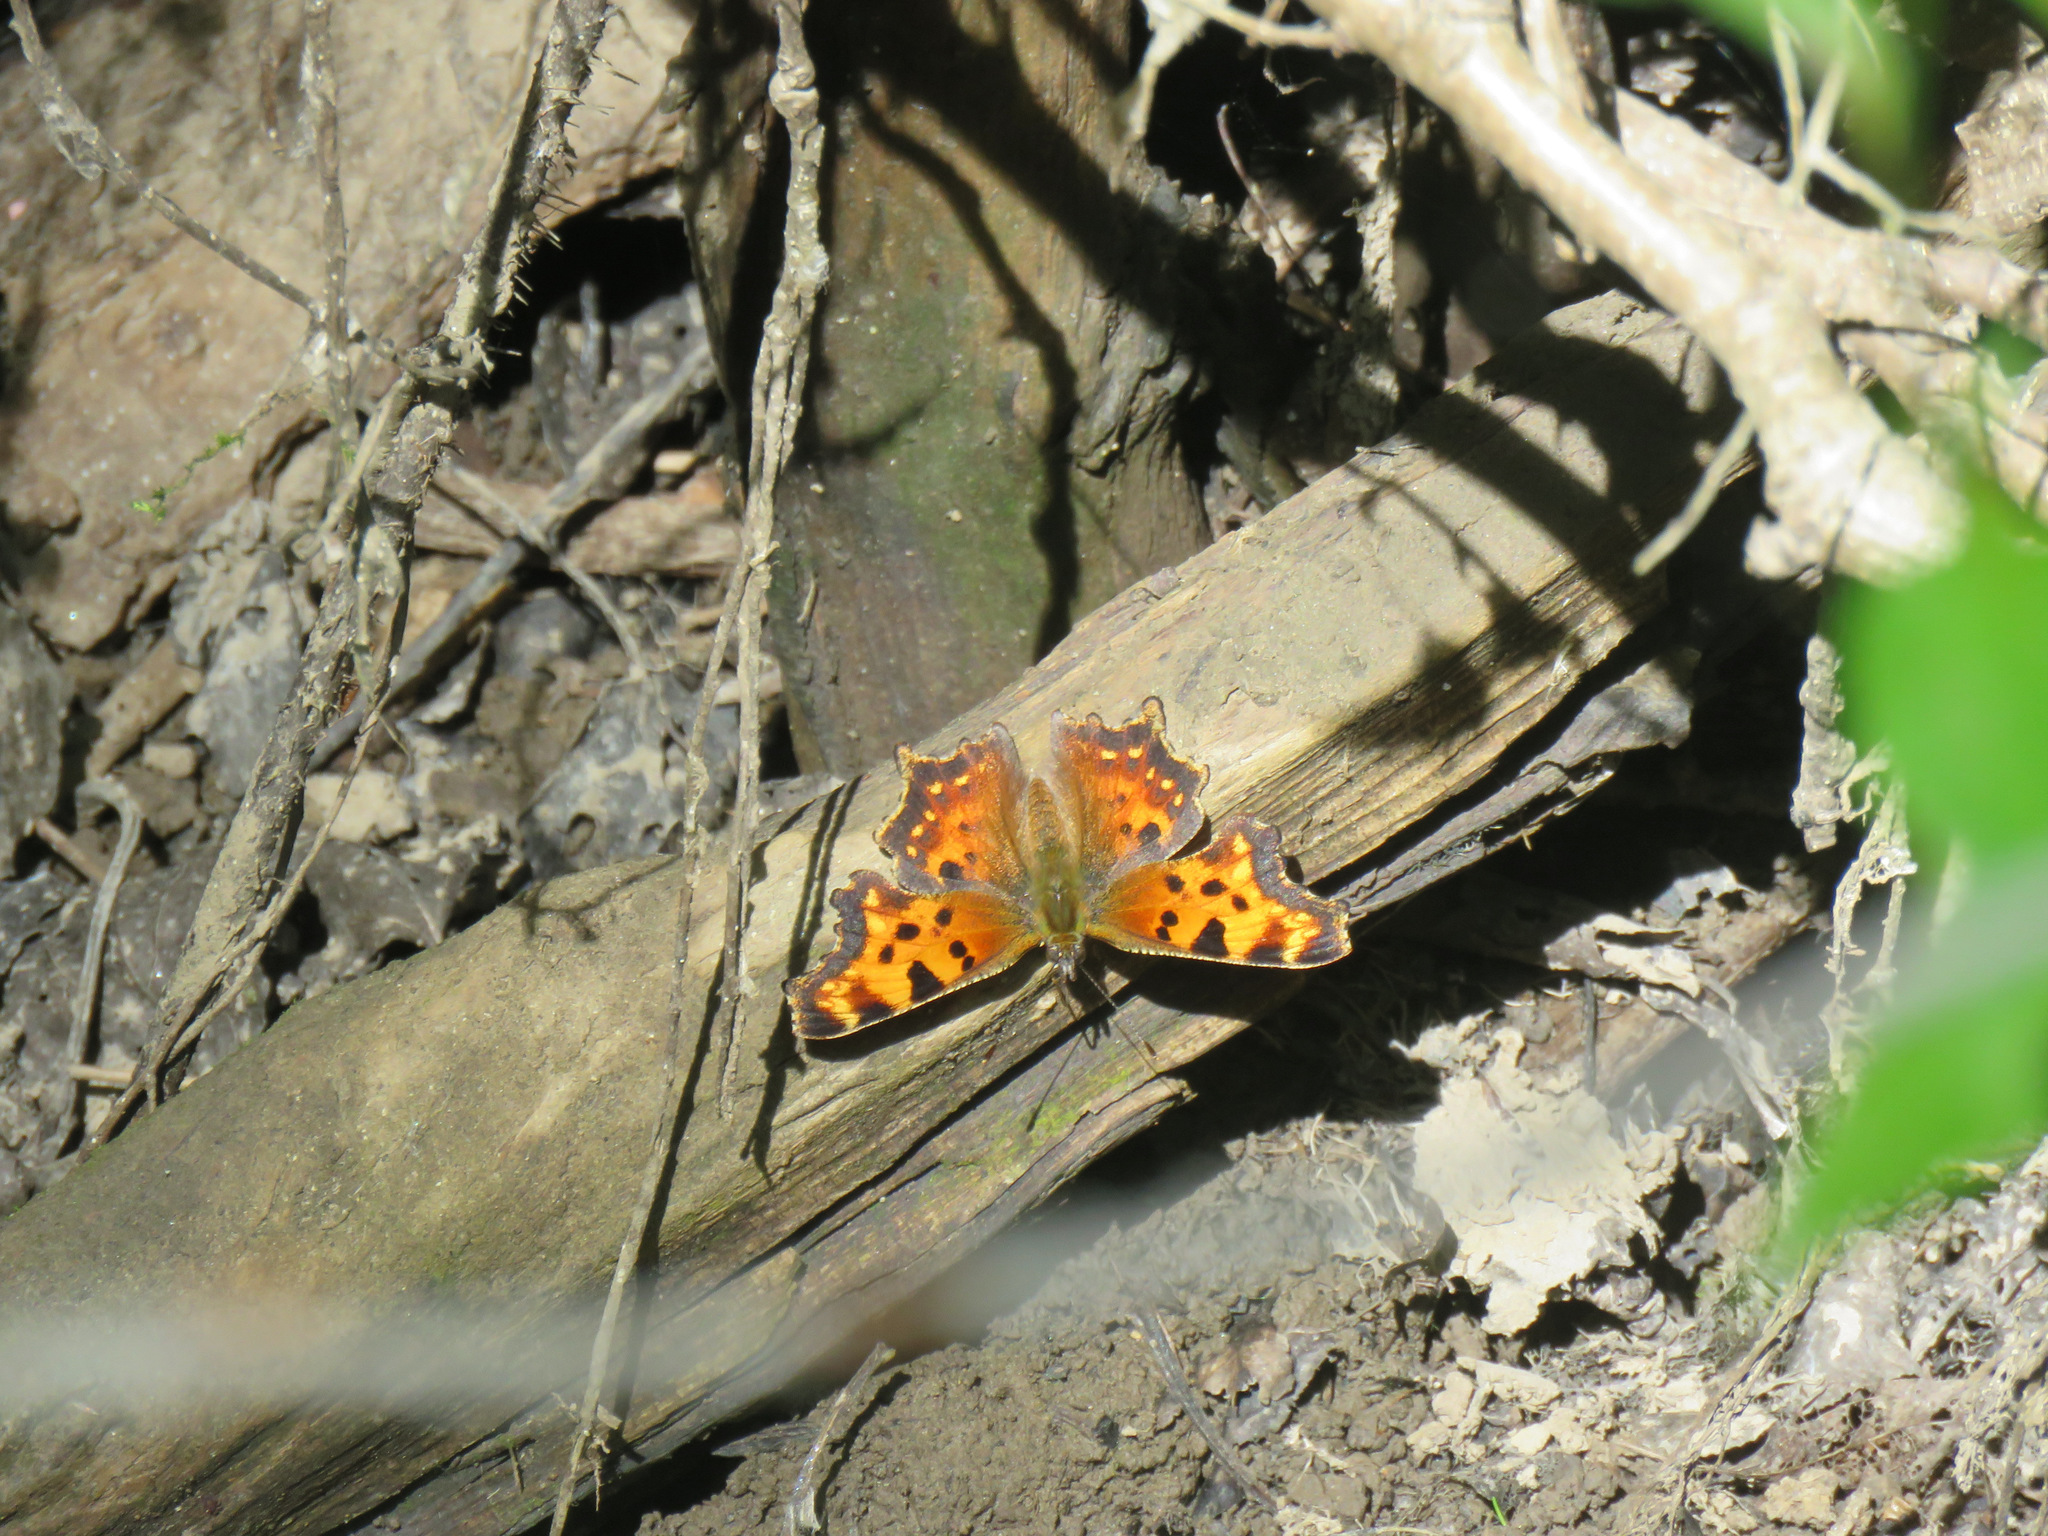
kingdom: Animalia
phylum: Arthropoda
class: Insecta
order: Lepidoptera
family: Nymphalidae
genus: Polygonia
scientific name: Polygonia faunus
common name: Green comma
